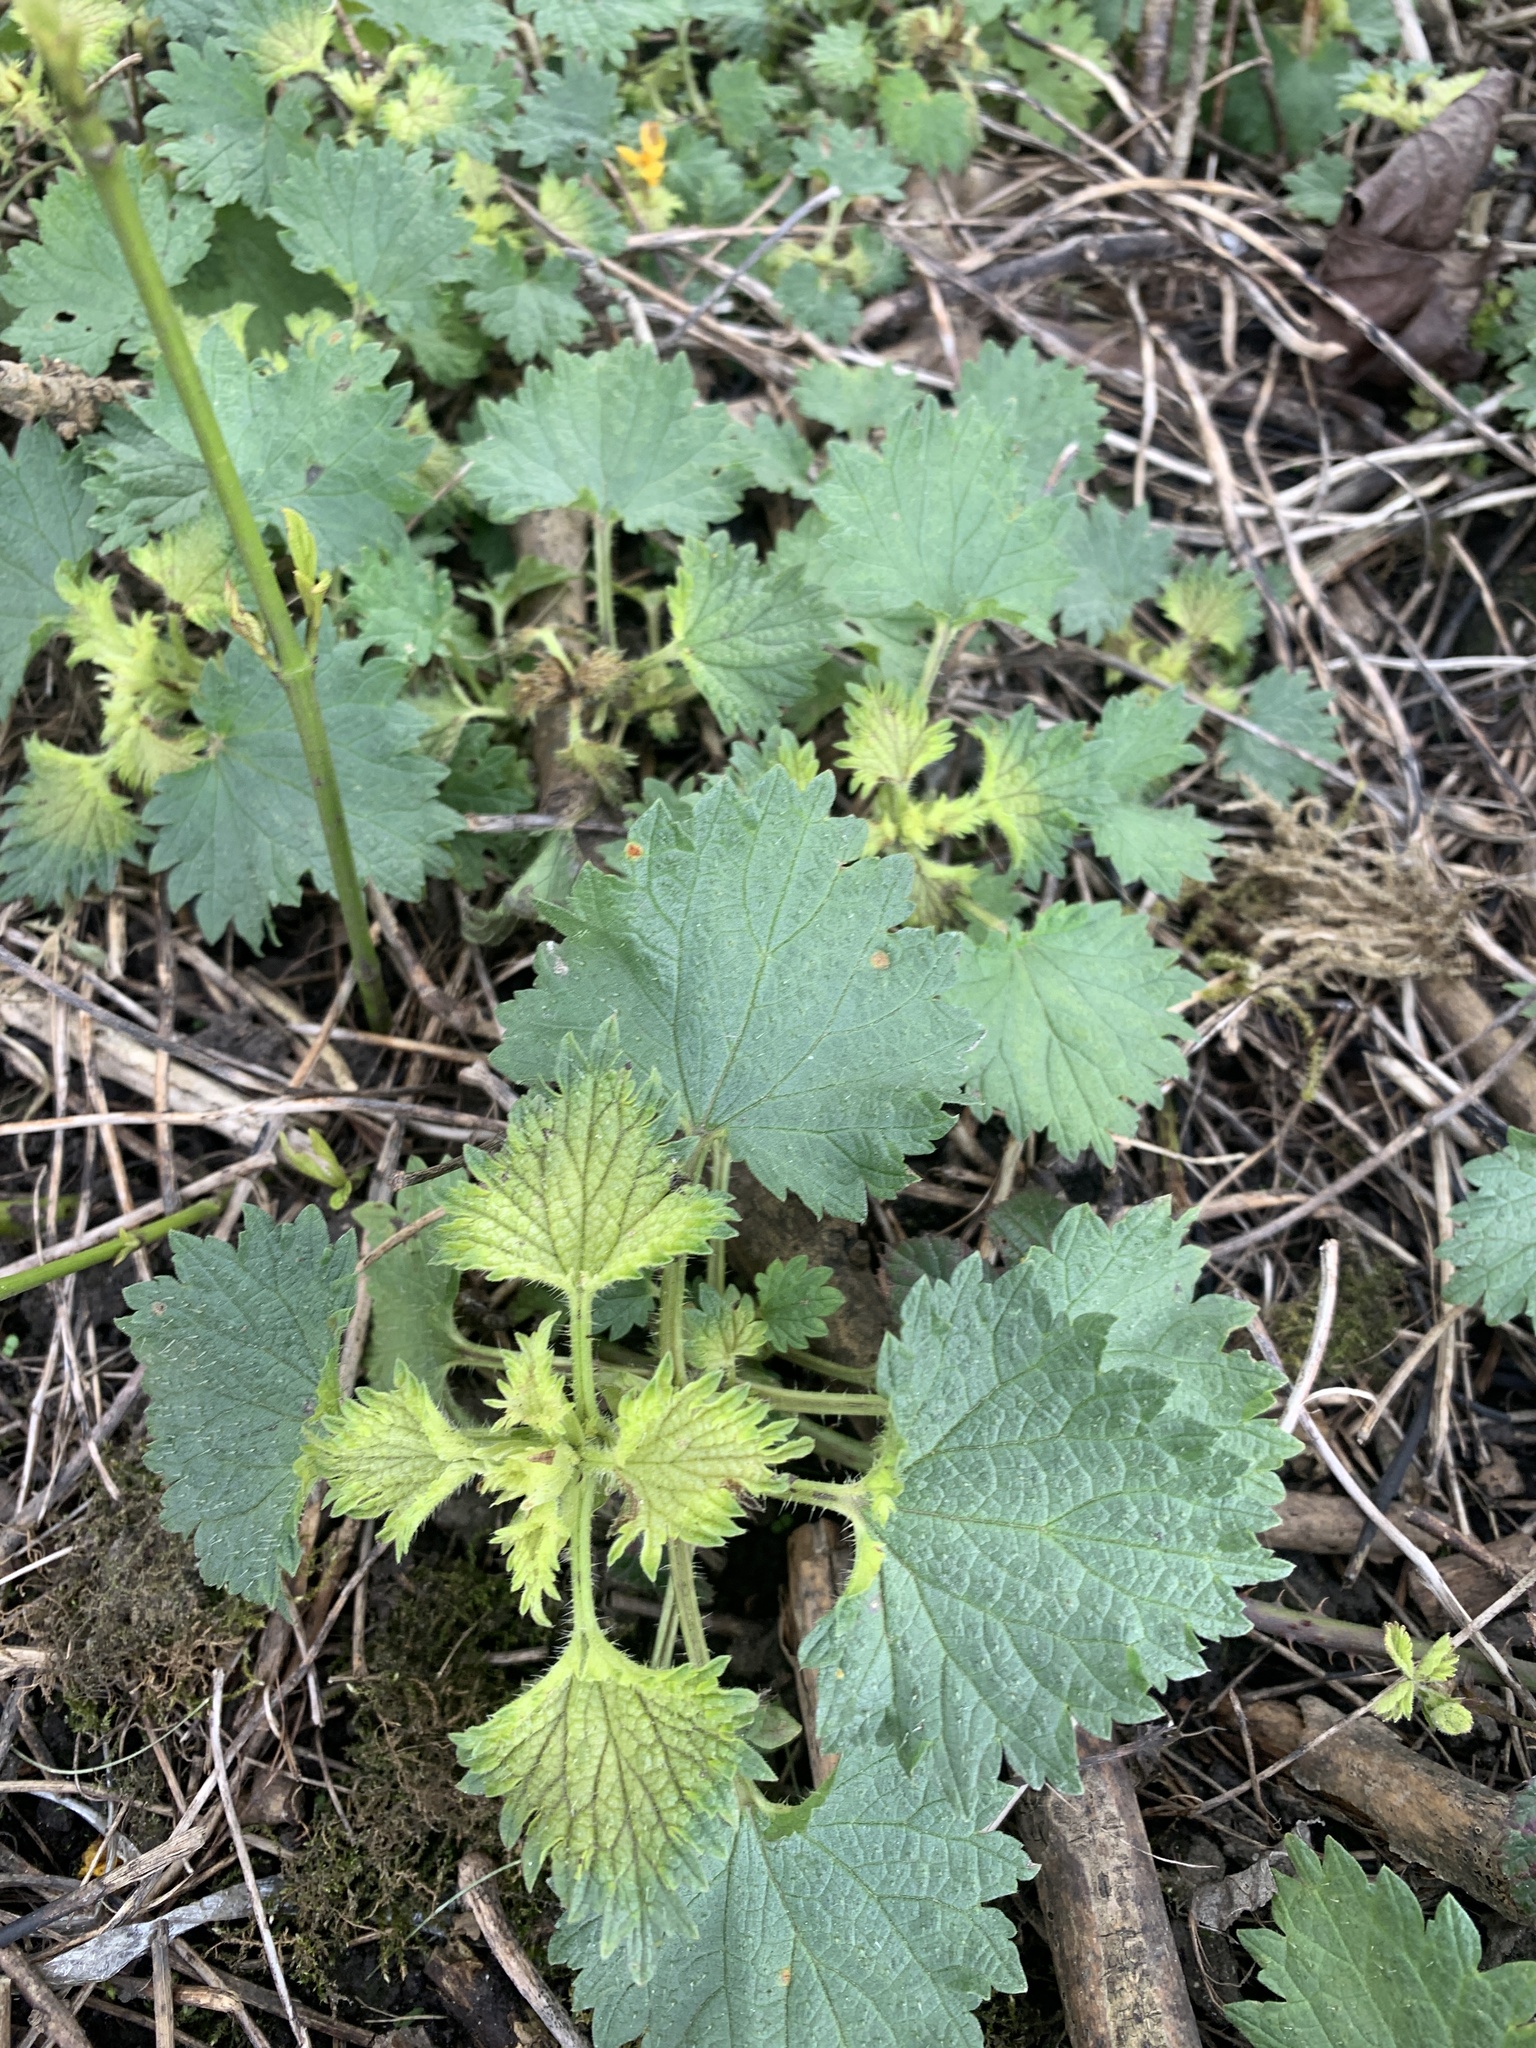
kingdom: Plantae
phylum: Tracheophyta
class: Magnoliopsida
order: Rosales
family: Urticaceae
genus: Urtica
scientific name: Urtica dioica
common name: Common nettle
